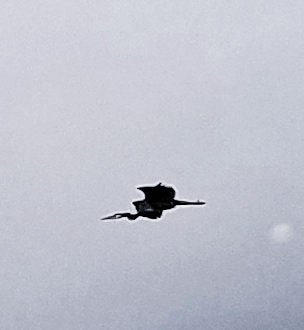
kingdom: Animalia
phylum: Chordata
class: Aves
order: Pelecaniformes
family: Ardeidae
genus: Ardea
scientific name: Ardea herodias
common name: Great blue heron
